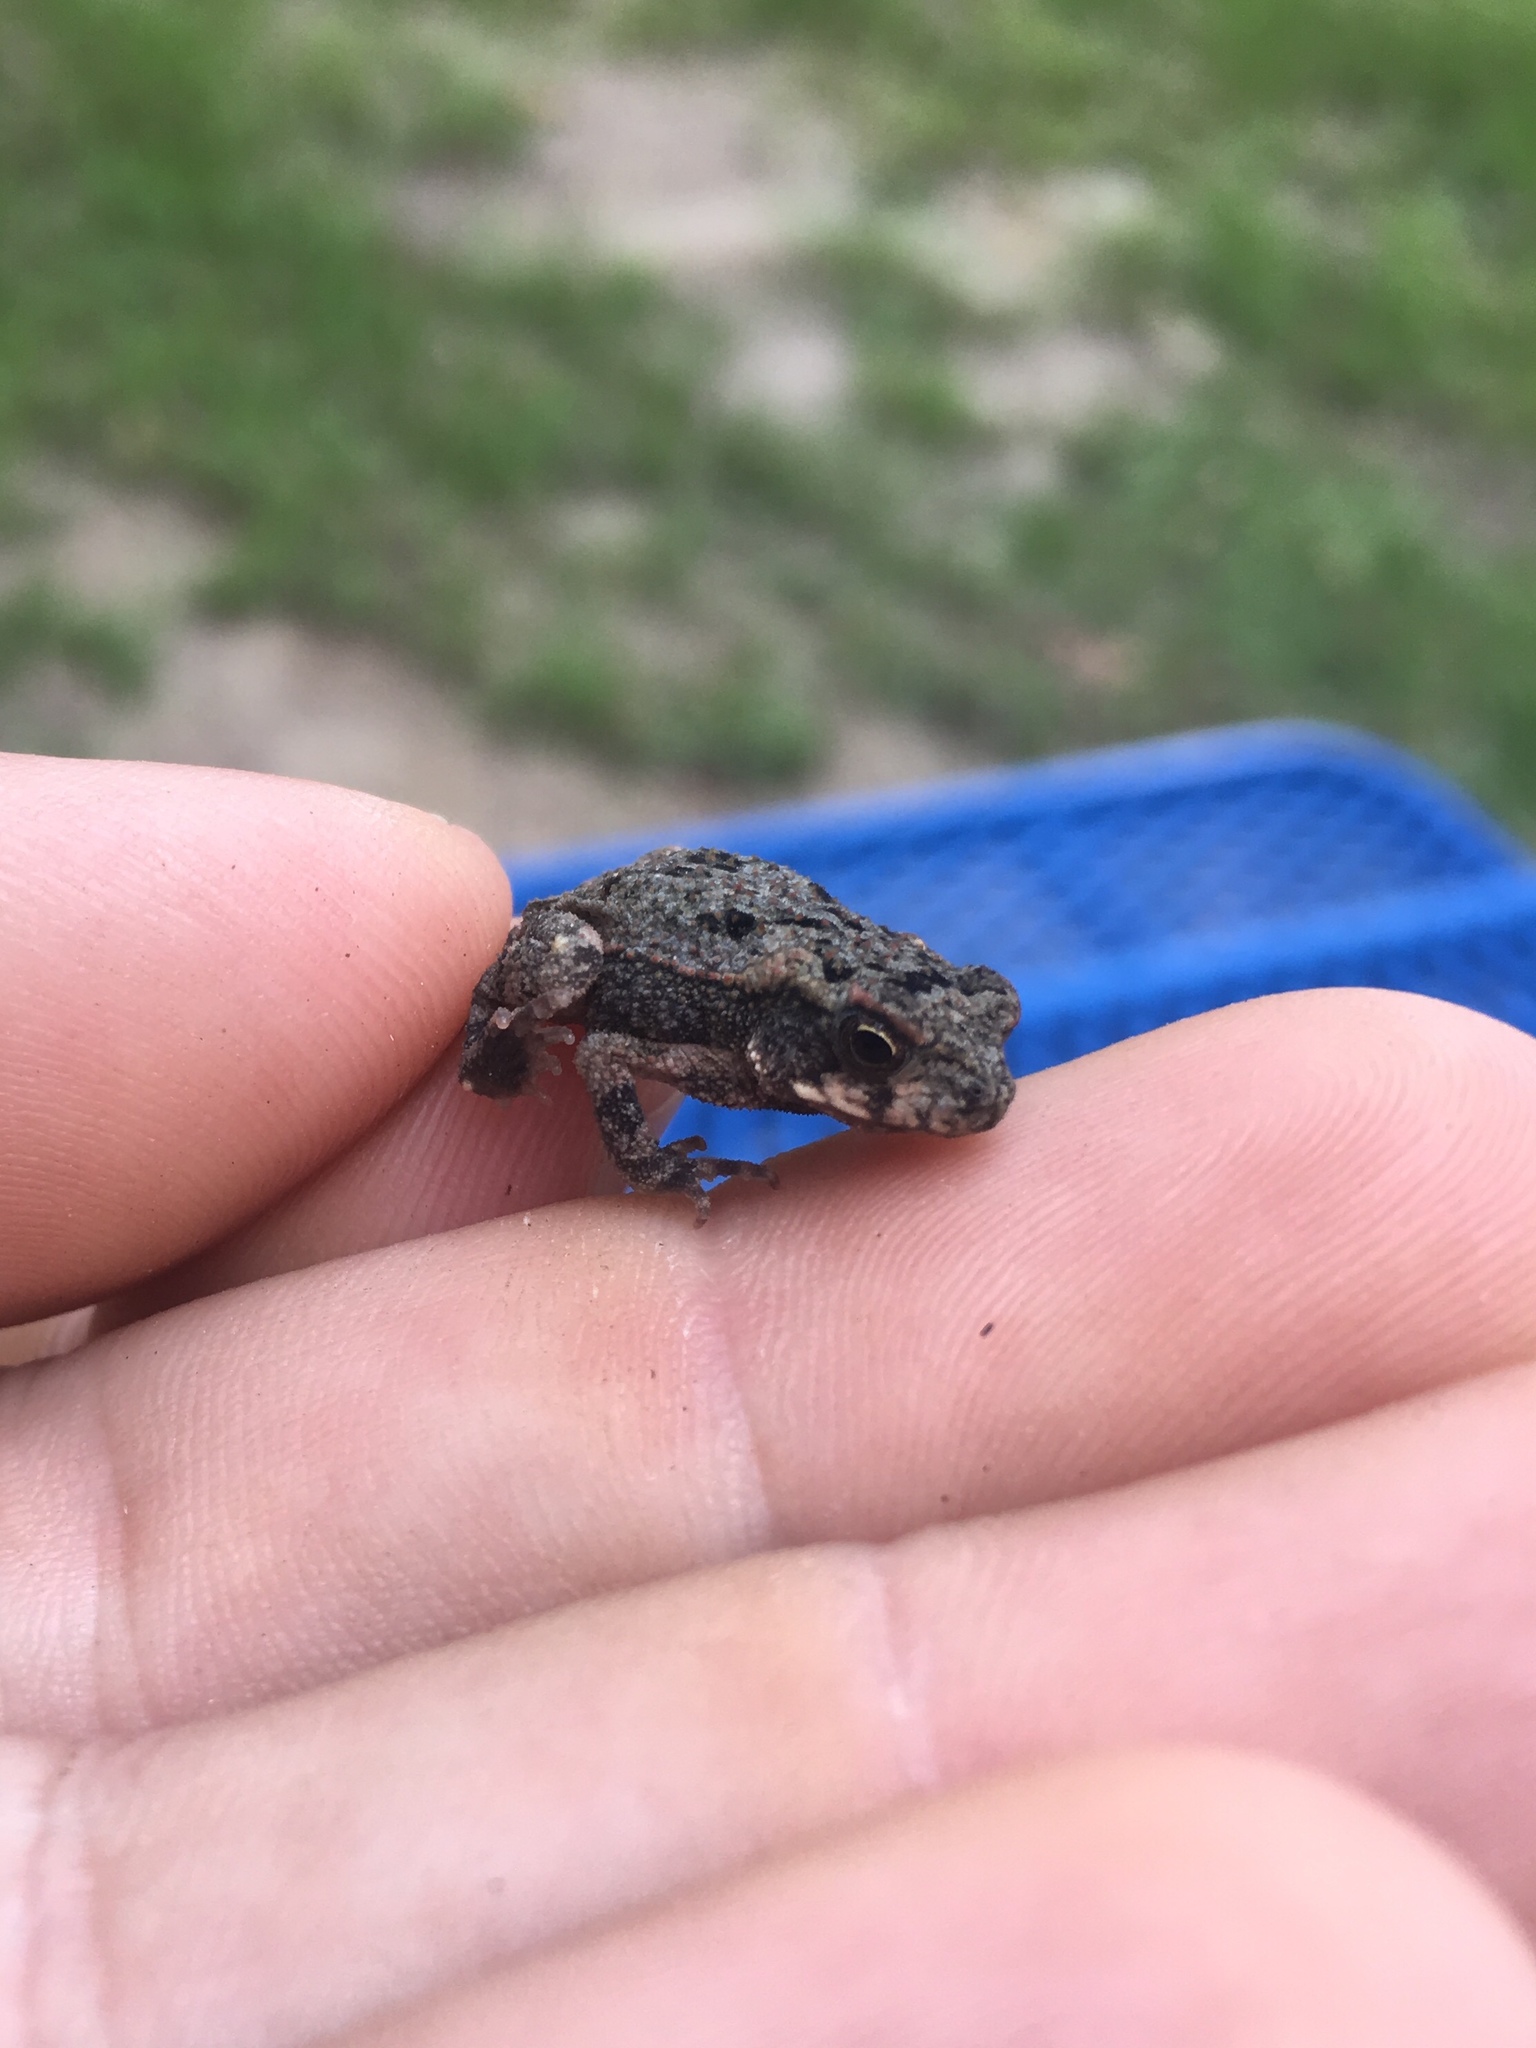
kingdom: Animalia
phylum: Chordata
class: Amphibia
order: Anura
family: Bufonidae
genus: Incilius
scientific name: Incilius nebulifer
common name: Gulf coast toad
